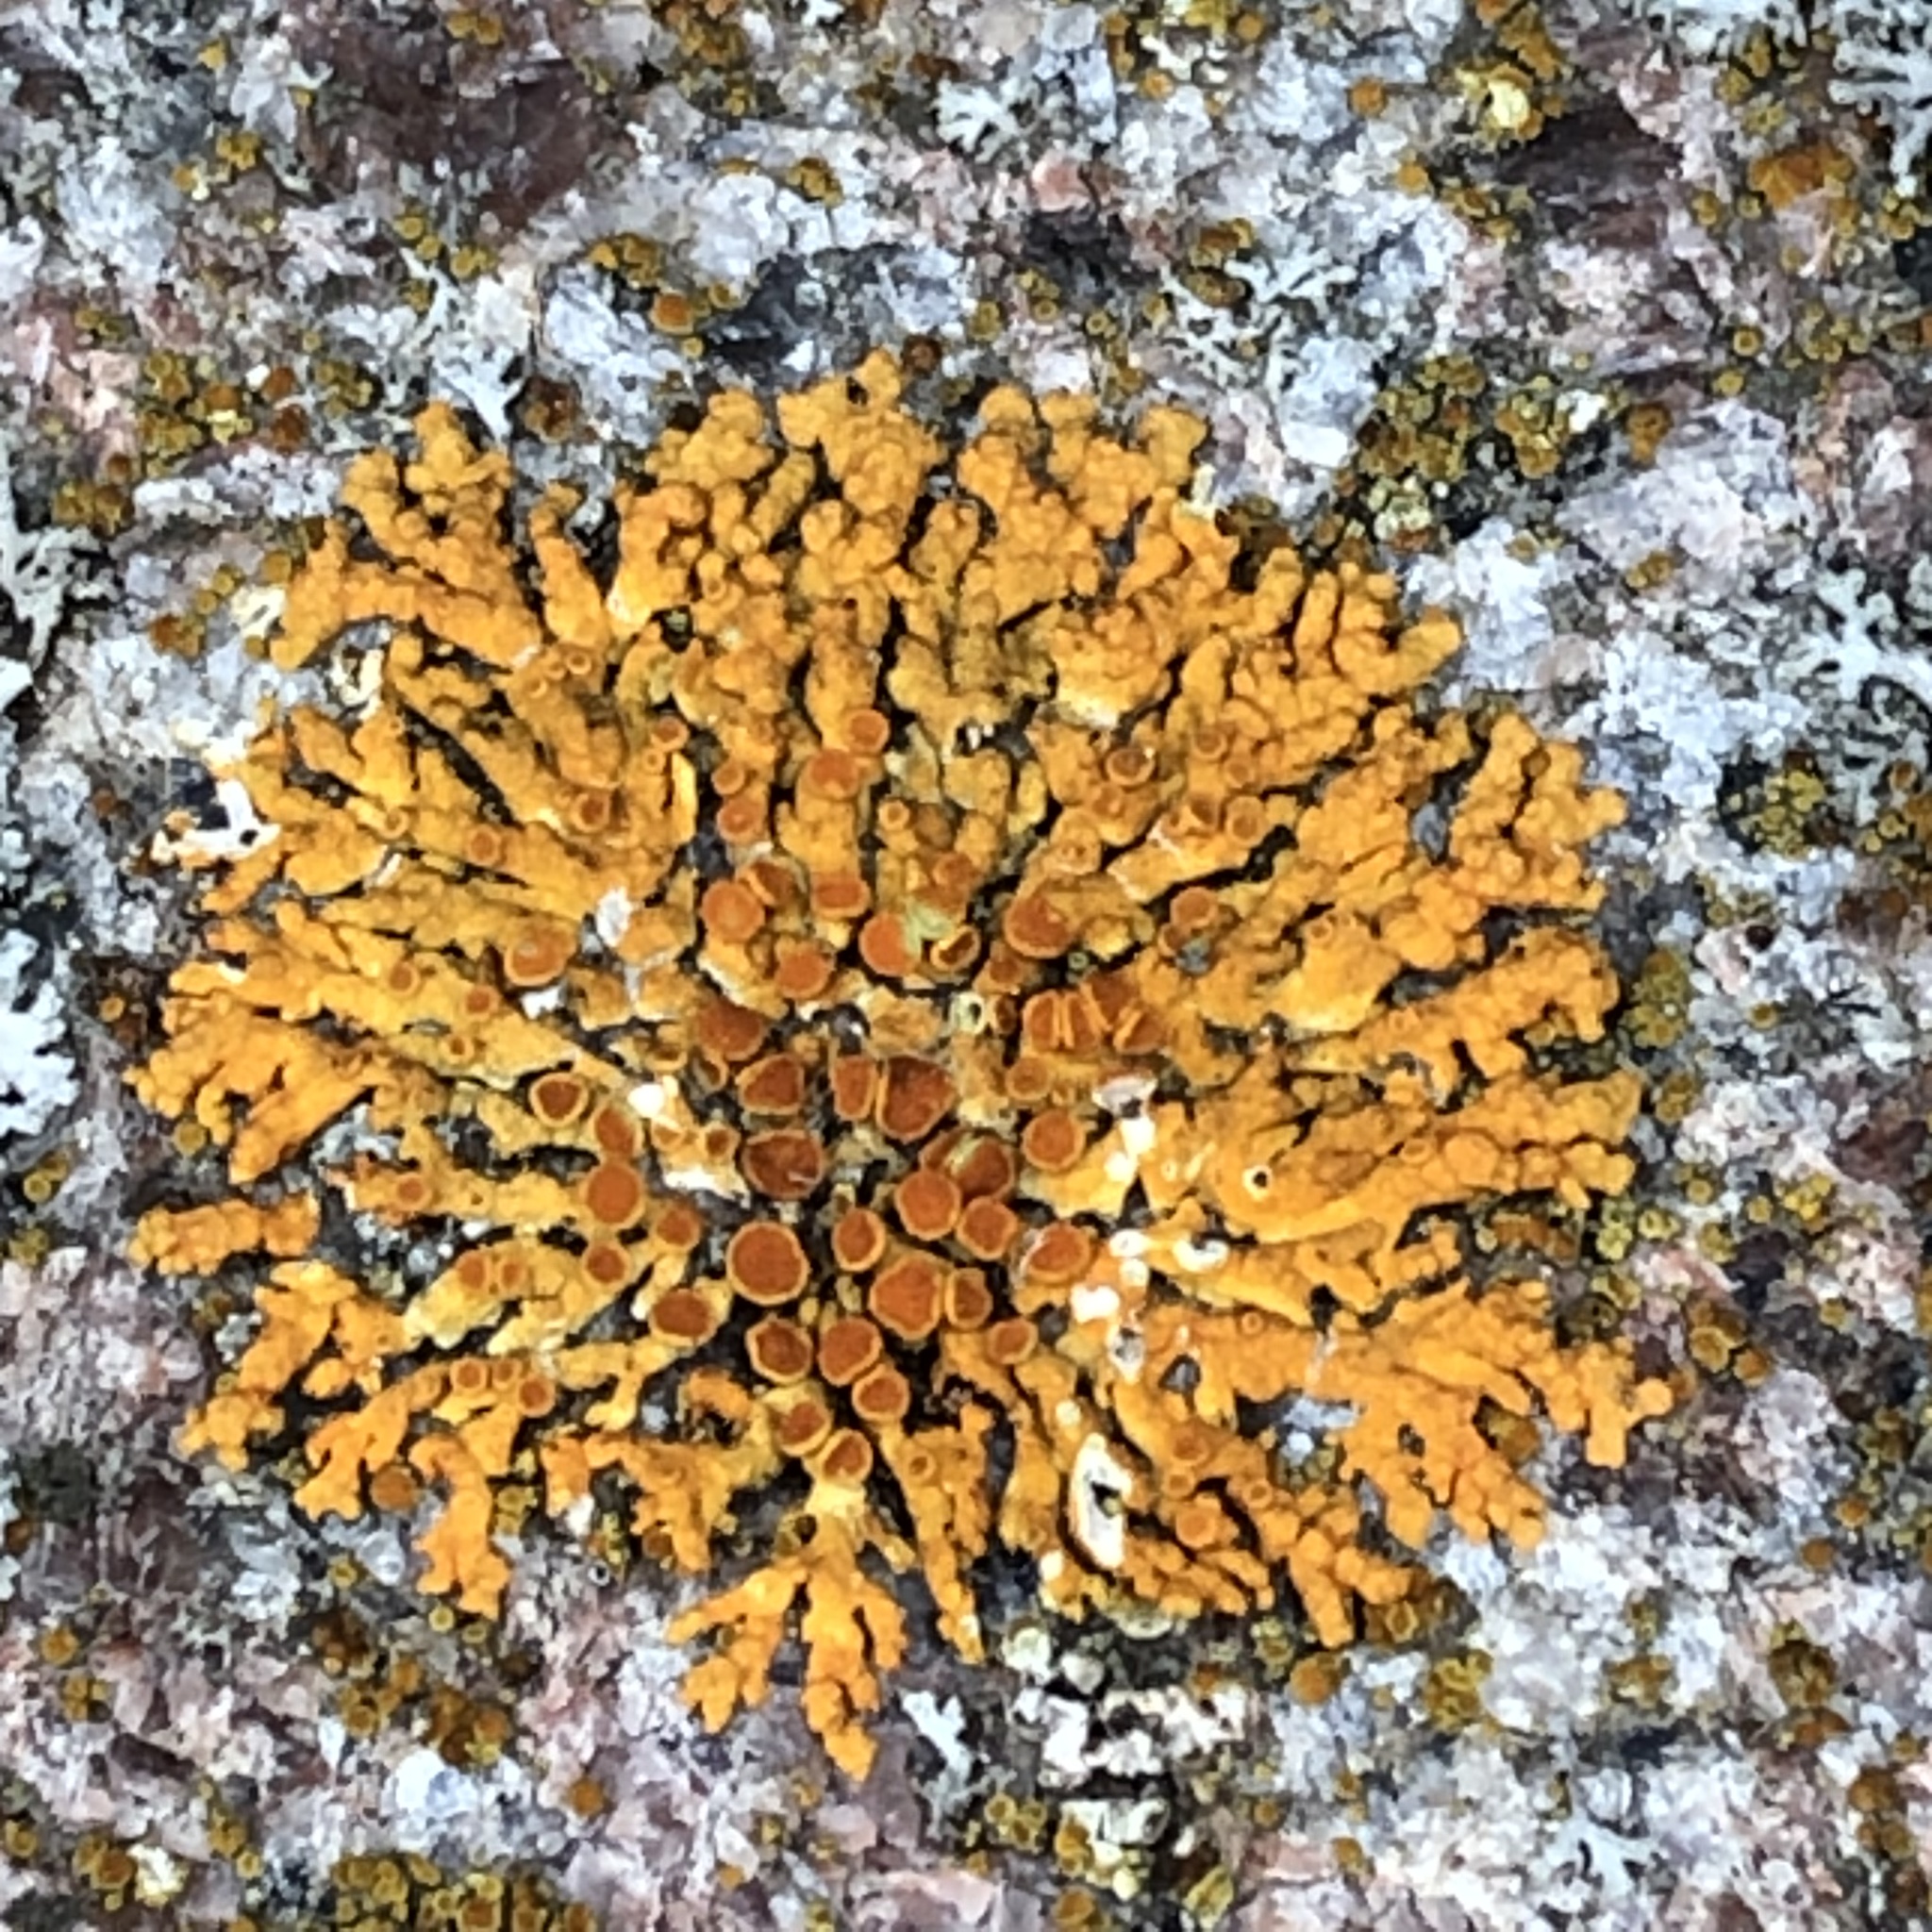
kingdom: Fungi
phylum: Ascomycota
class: Lecanoromycetes
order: Teloschistales
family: Teloschistaceae
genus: Xanthoria
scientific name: Xanthoria elegans
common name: Elegant sunburst lichen
